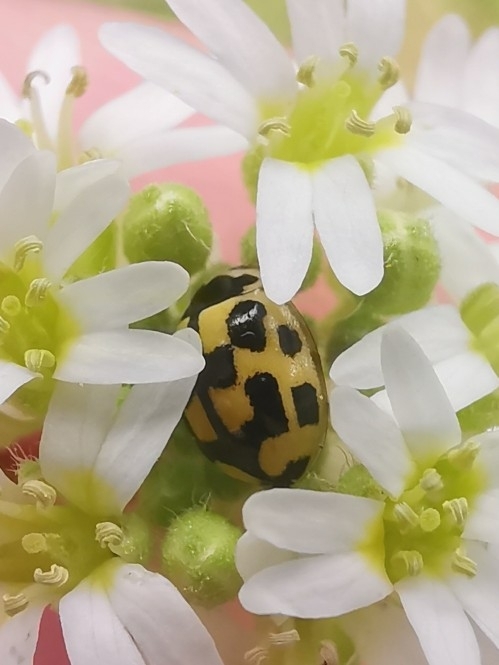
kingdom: Animalia
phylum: Arthropoda
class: Insecta
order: Coleoptera
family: Coccinellidae
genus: Propylaea
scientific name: Propylaea quatuordecimpunctata
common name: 14-spotted ladybird beetle
